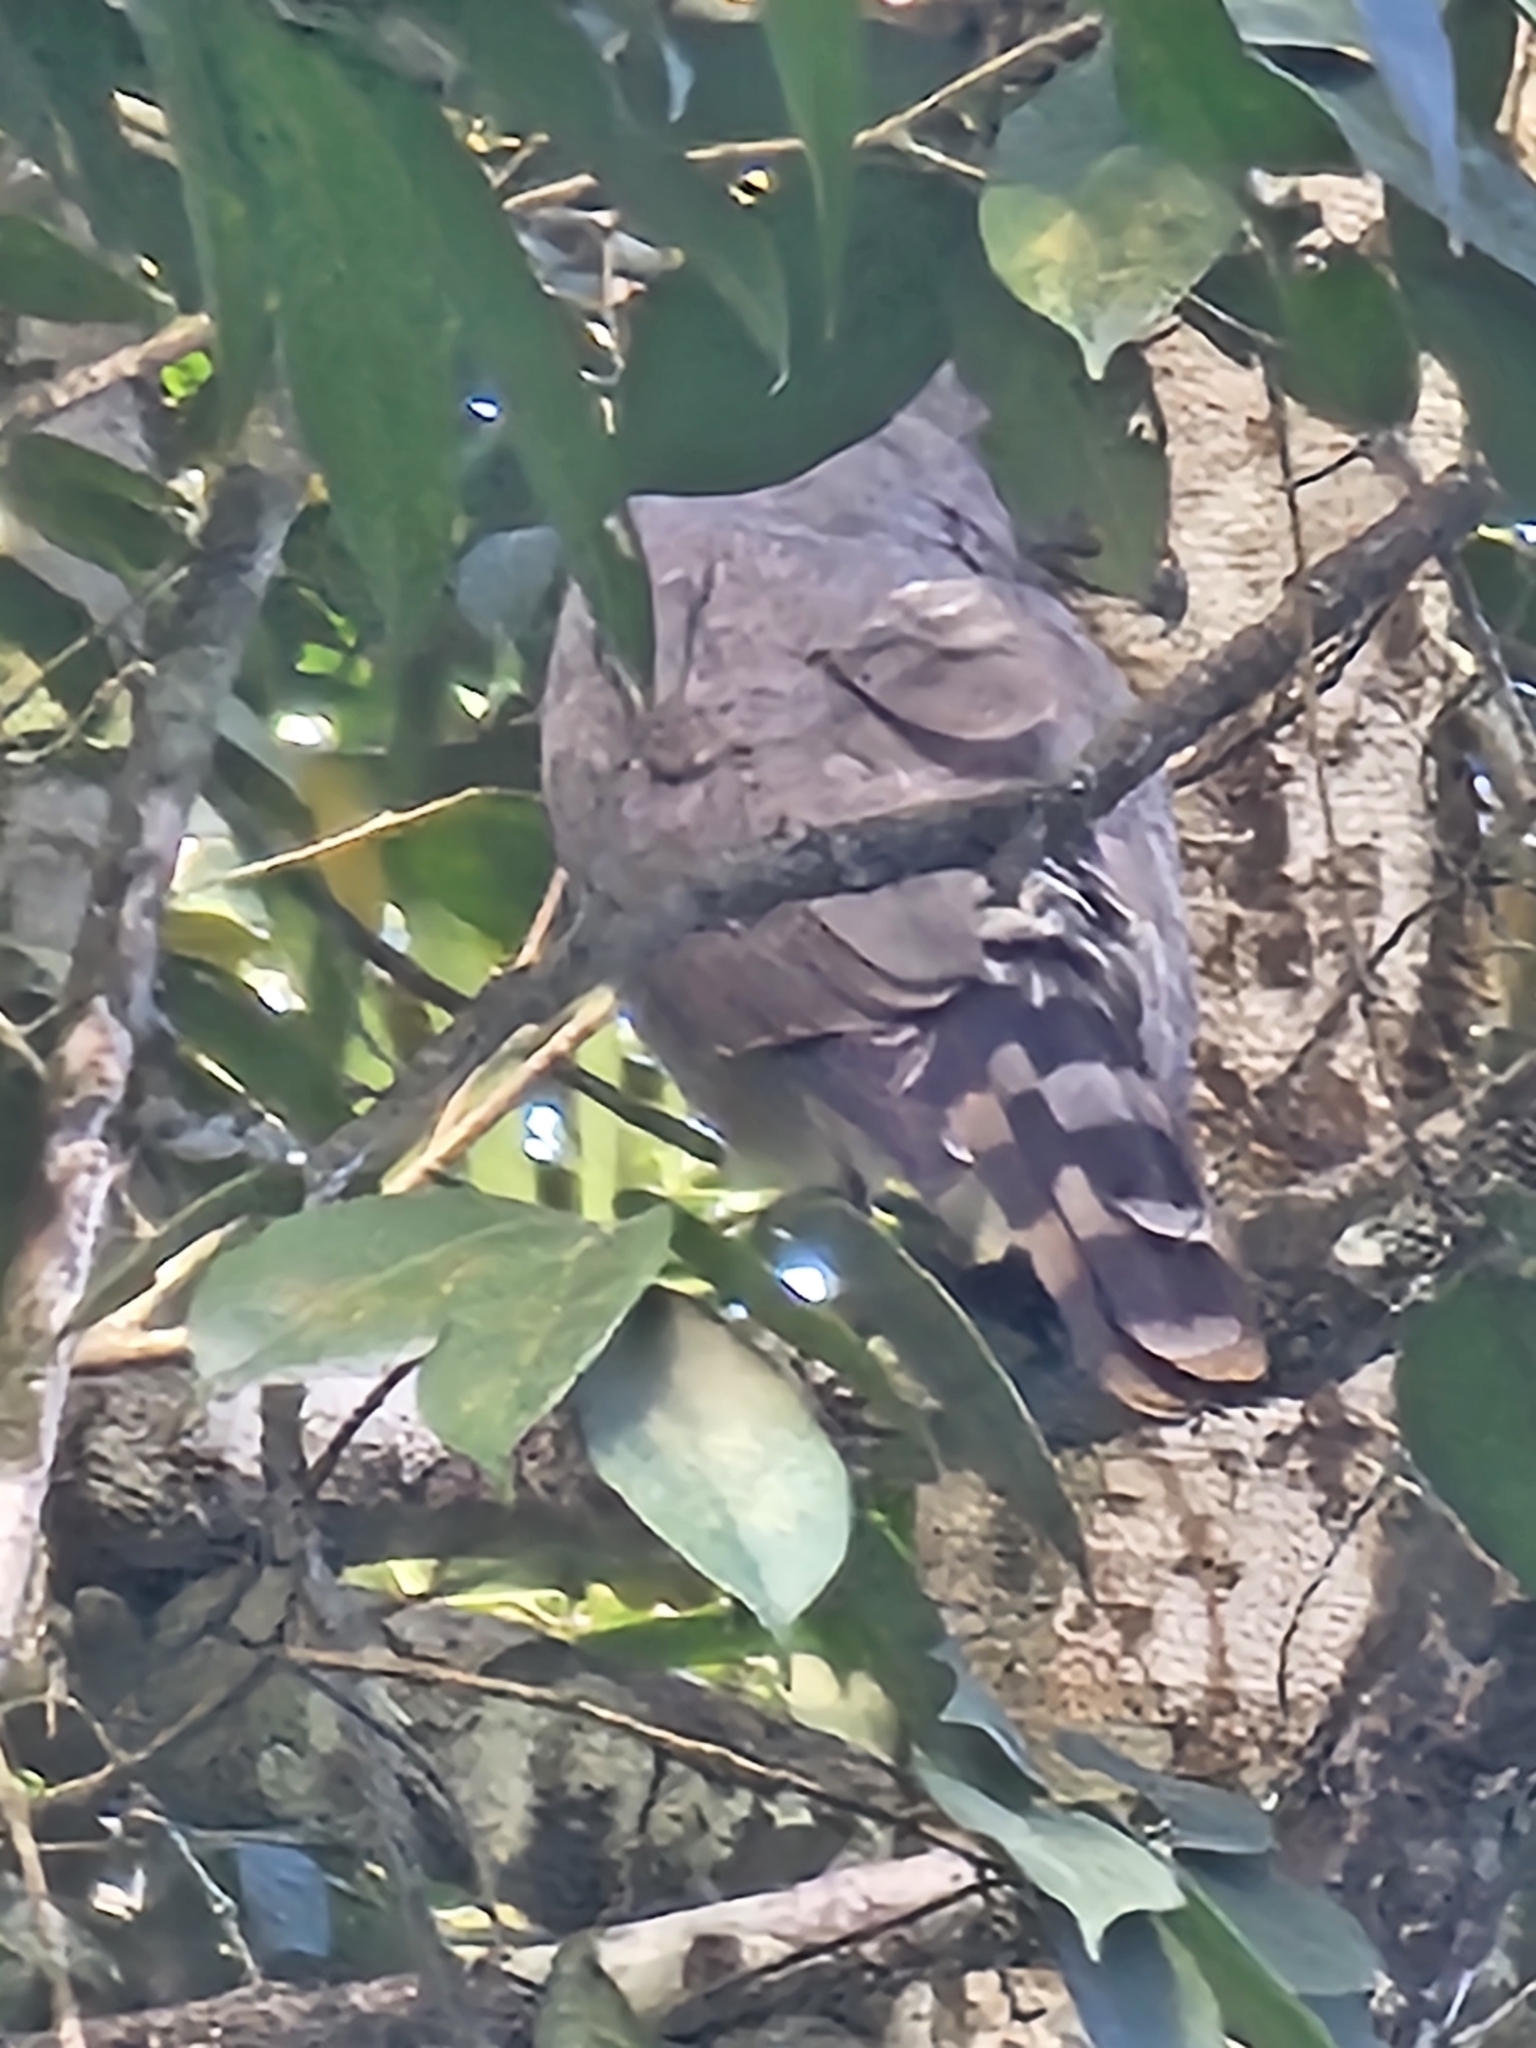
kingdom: Animalia
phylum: Chordata
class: Aves
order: Accipitriformes
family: Accipitridae
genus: Rupornis
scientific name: Rupornis magnirostris
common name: Roadside hawk
